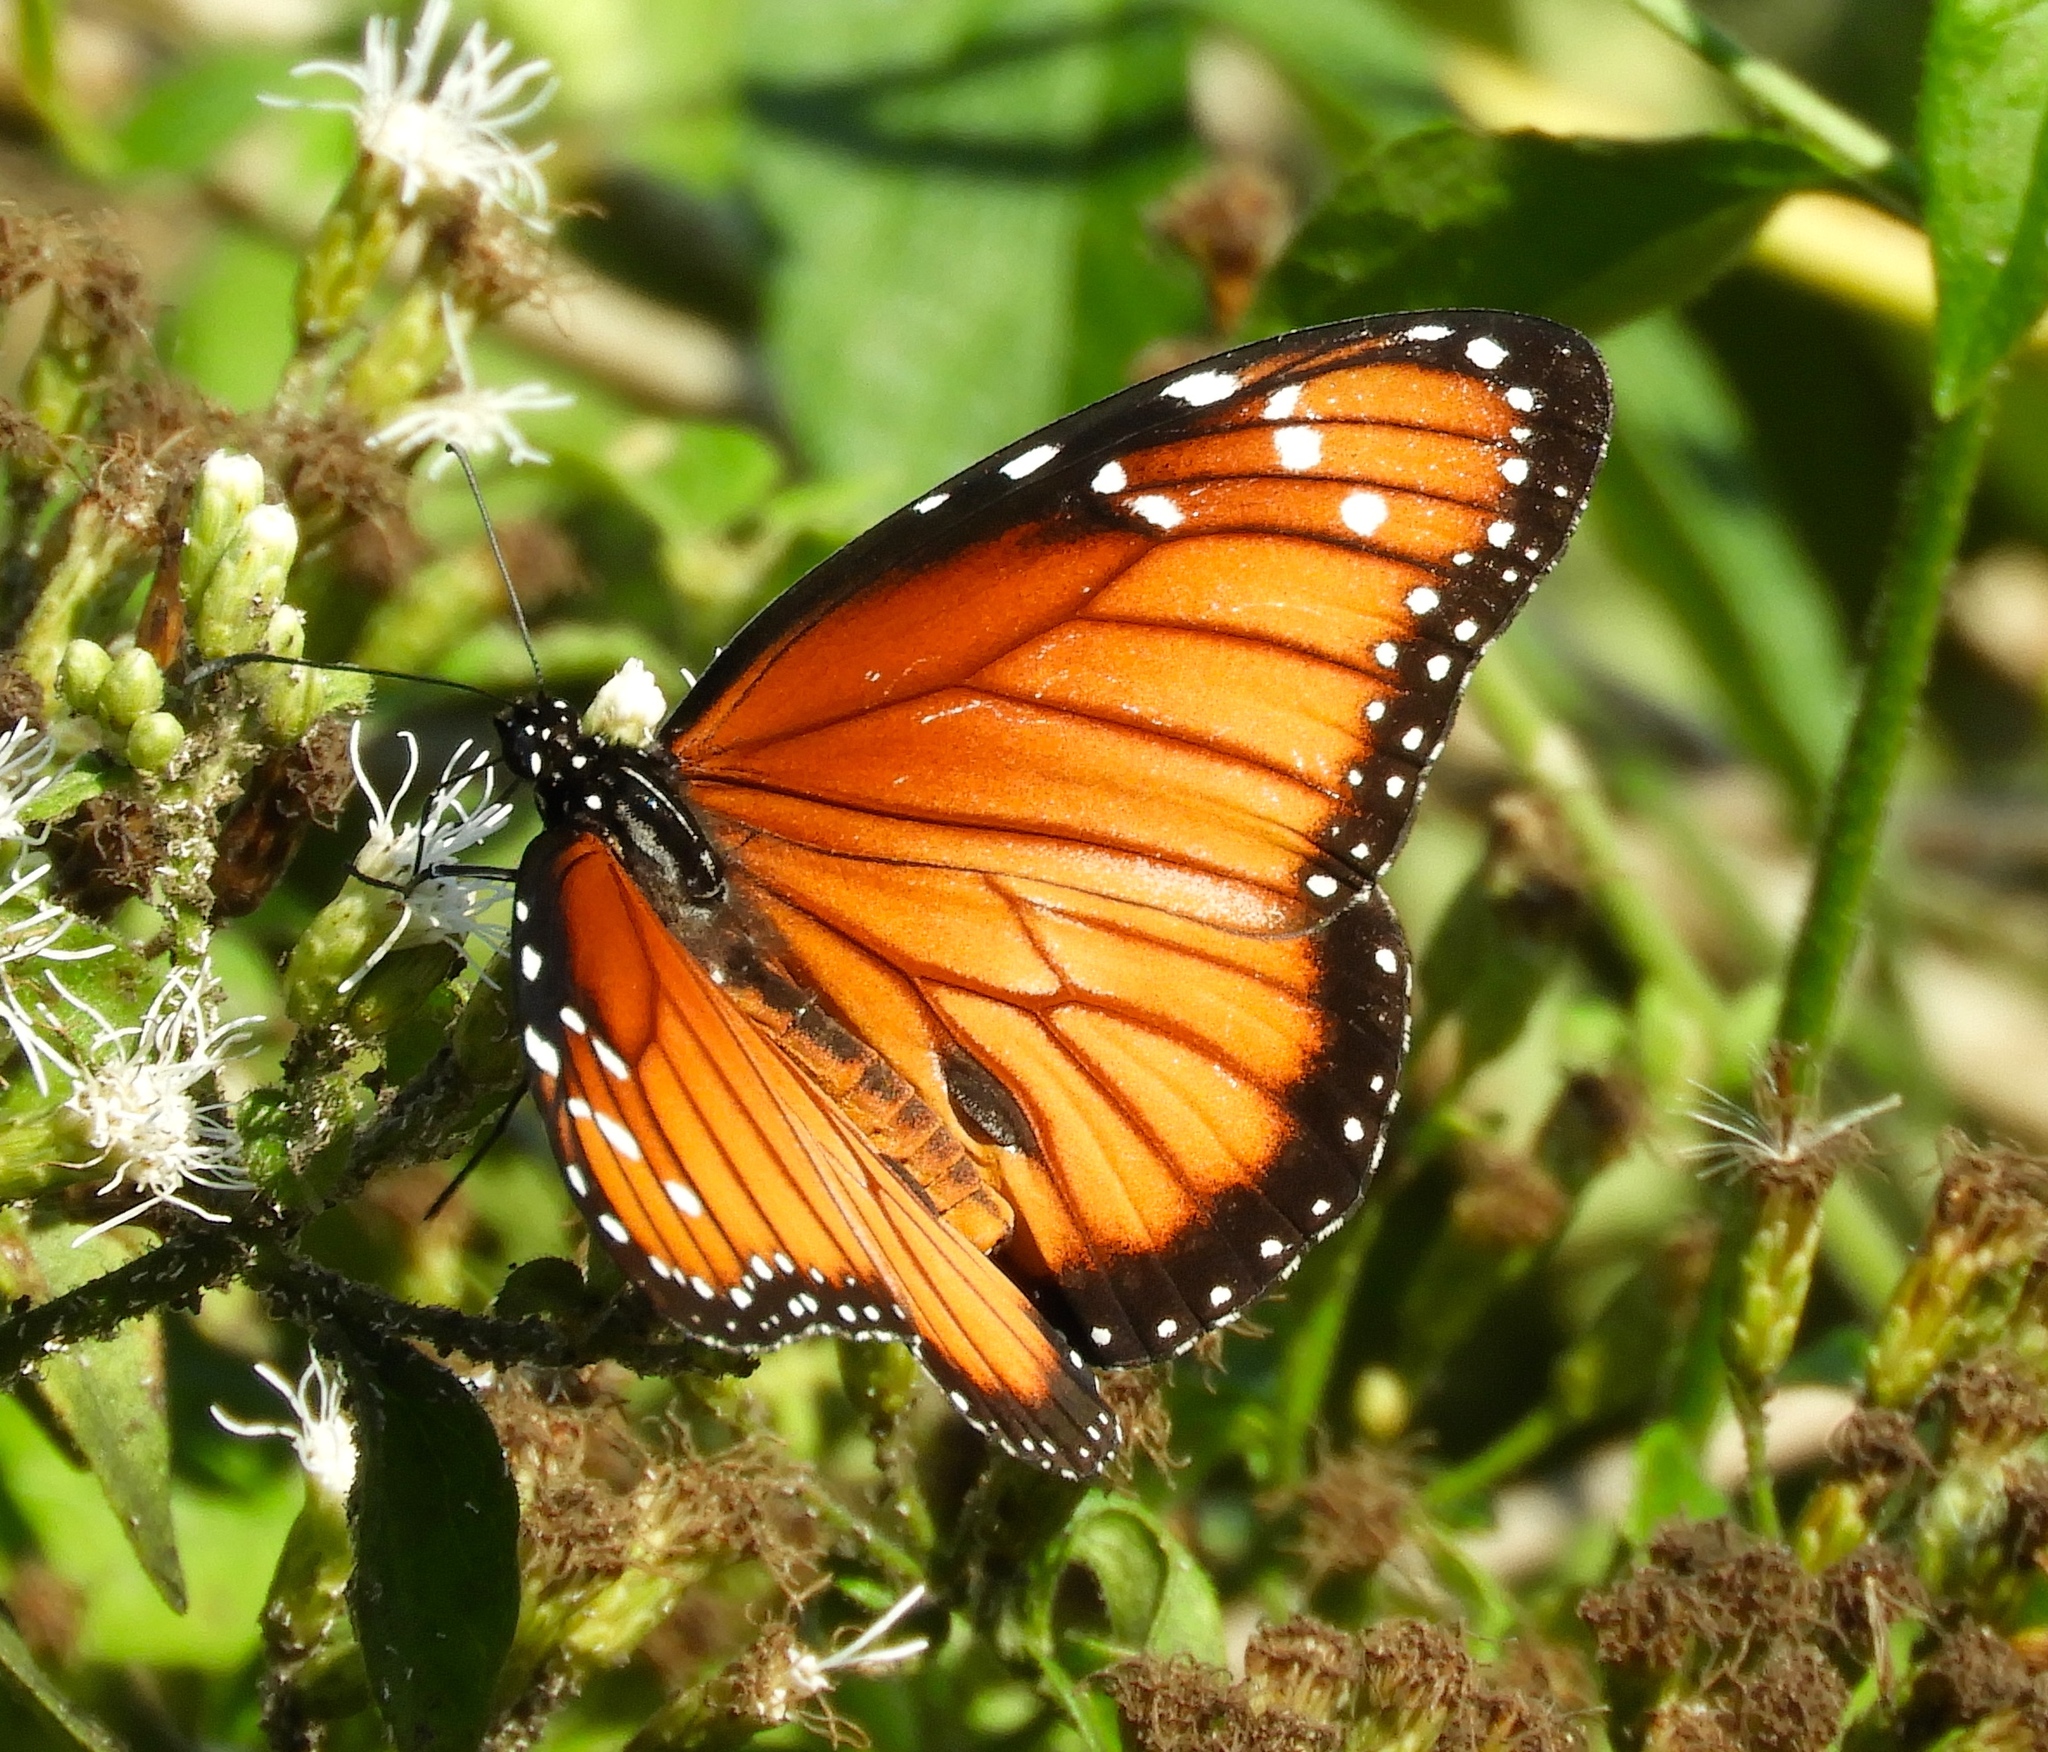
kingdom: Animalia
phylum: Arthropoda
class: Insecta
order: Lepidoptera
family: Nymphalidae
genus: Danaus
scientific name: Danaus eresimus
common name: Soldier
